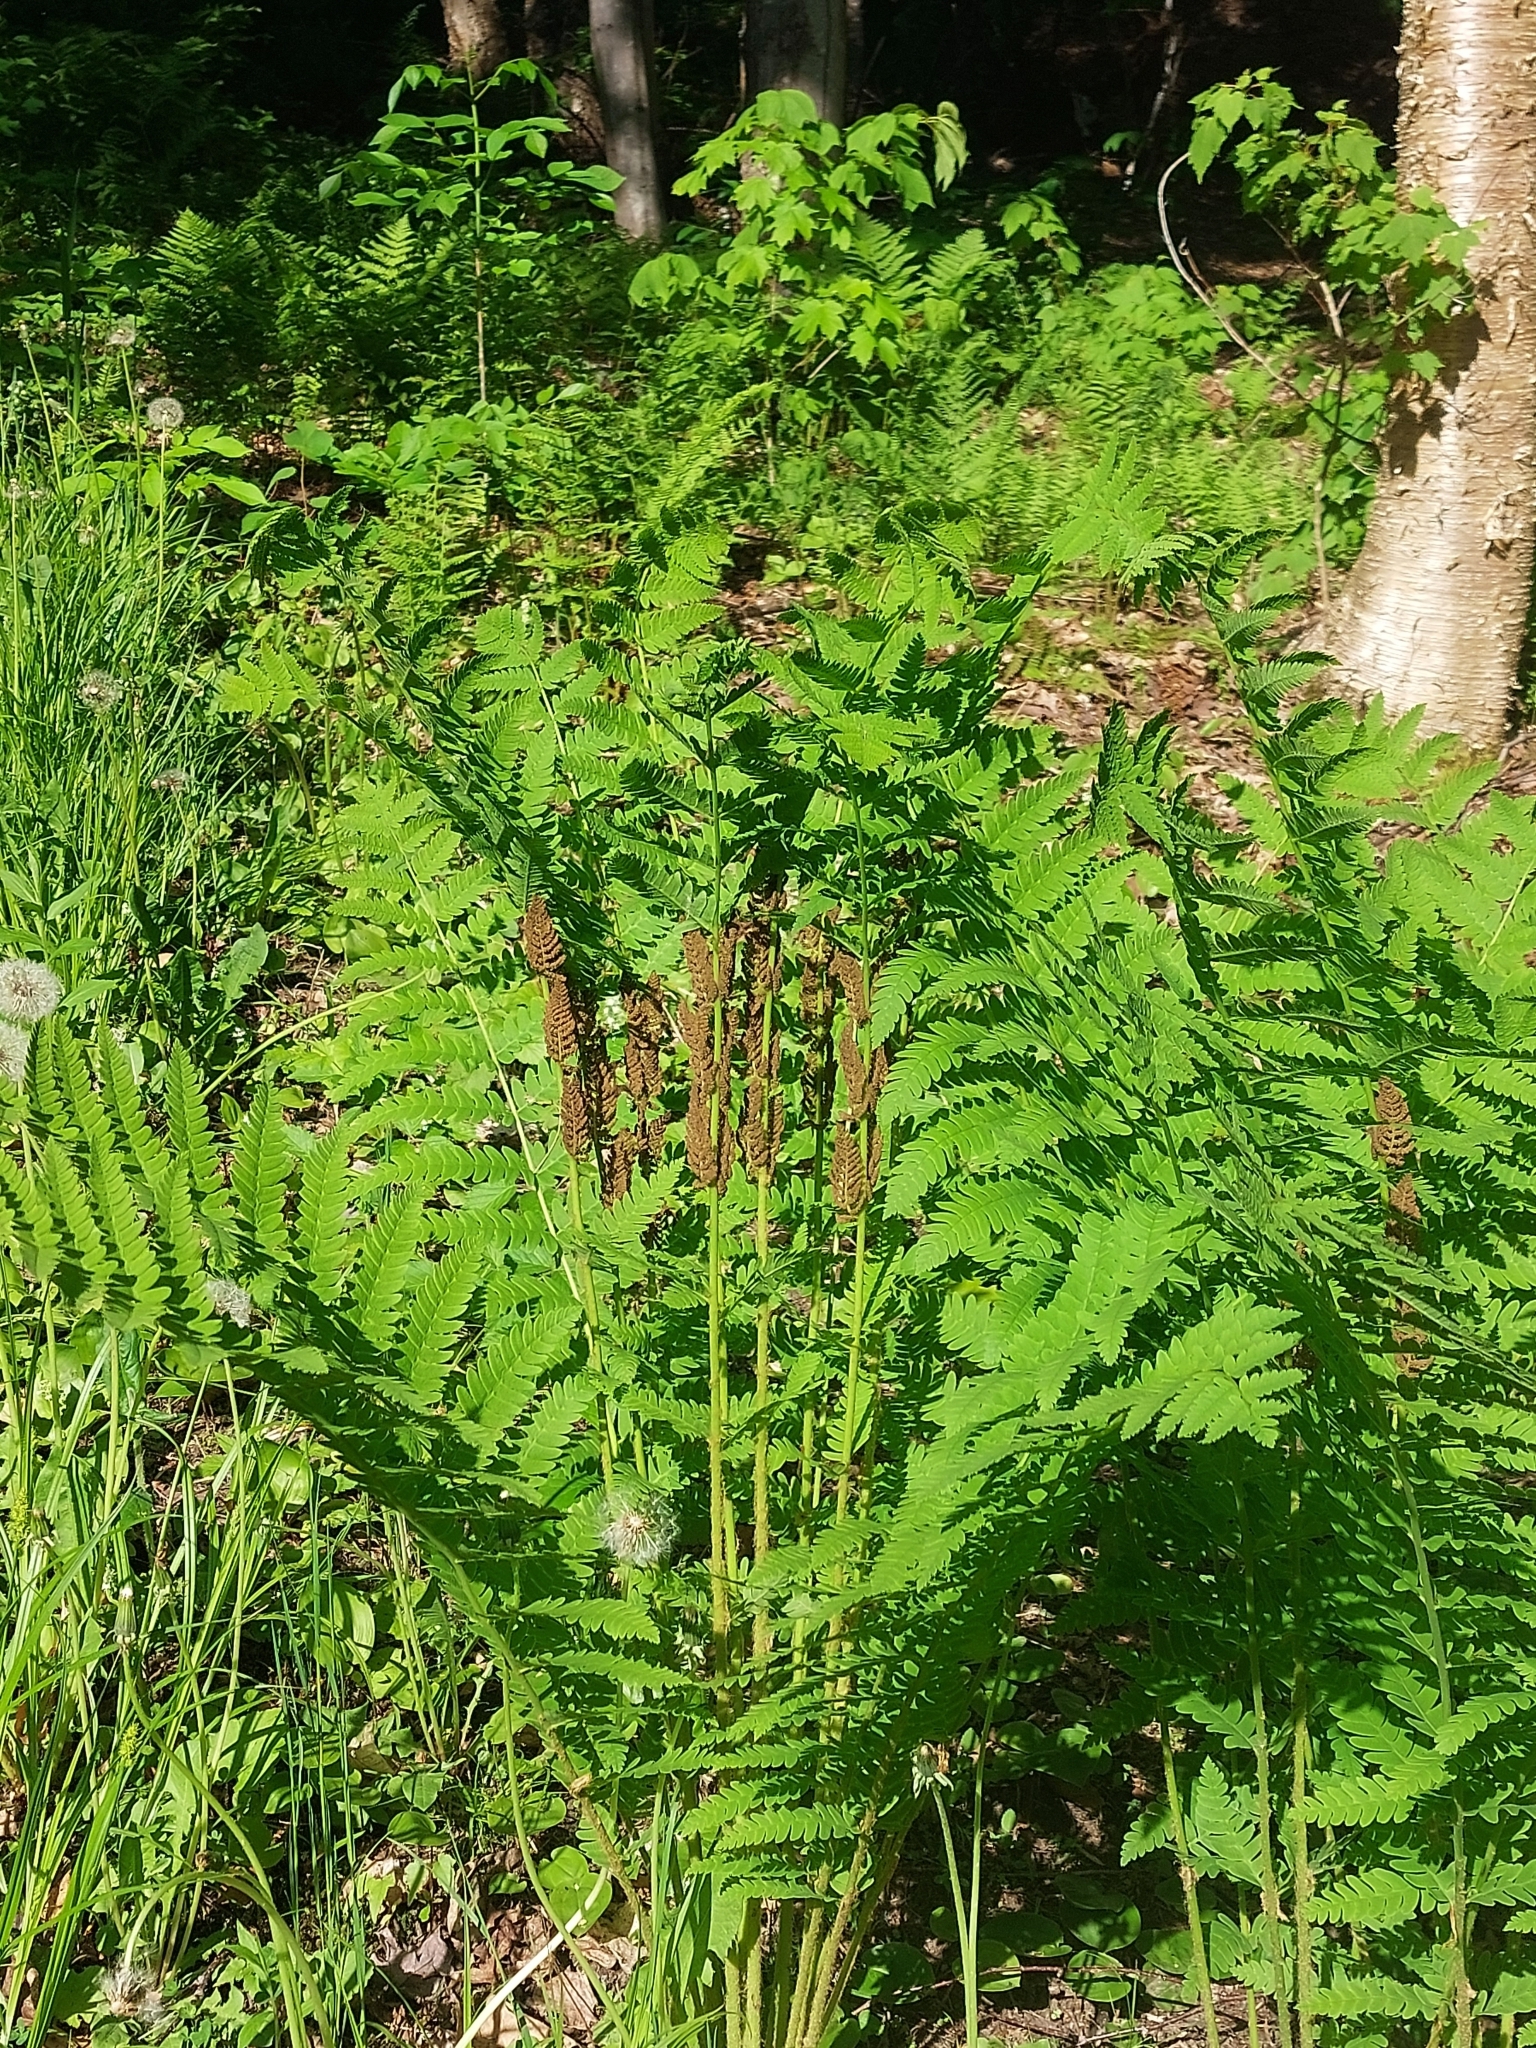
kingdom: Plantae
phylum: Tracheophyta
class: Polypodiopsida
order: Osmundales
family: Osmundaceae
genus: Claytosmunda
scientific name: Claytosmunda claytoniana
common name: Clayton's fern
